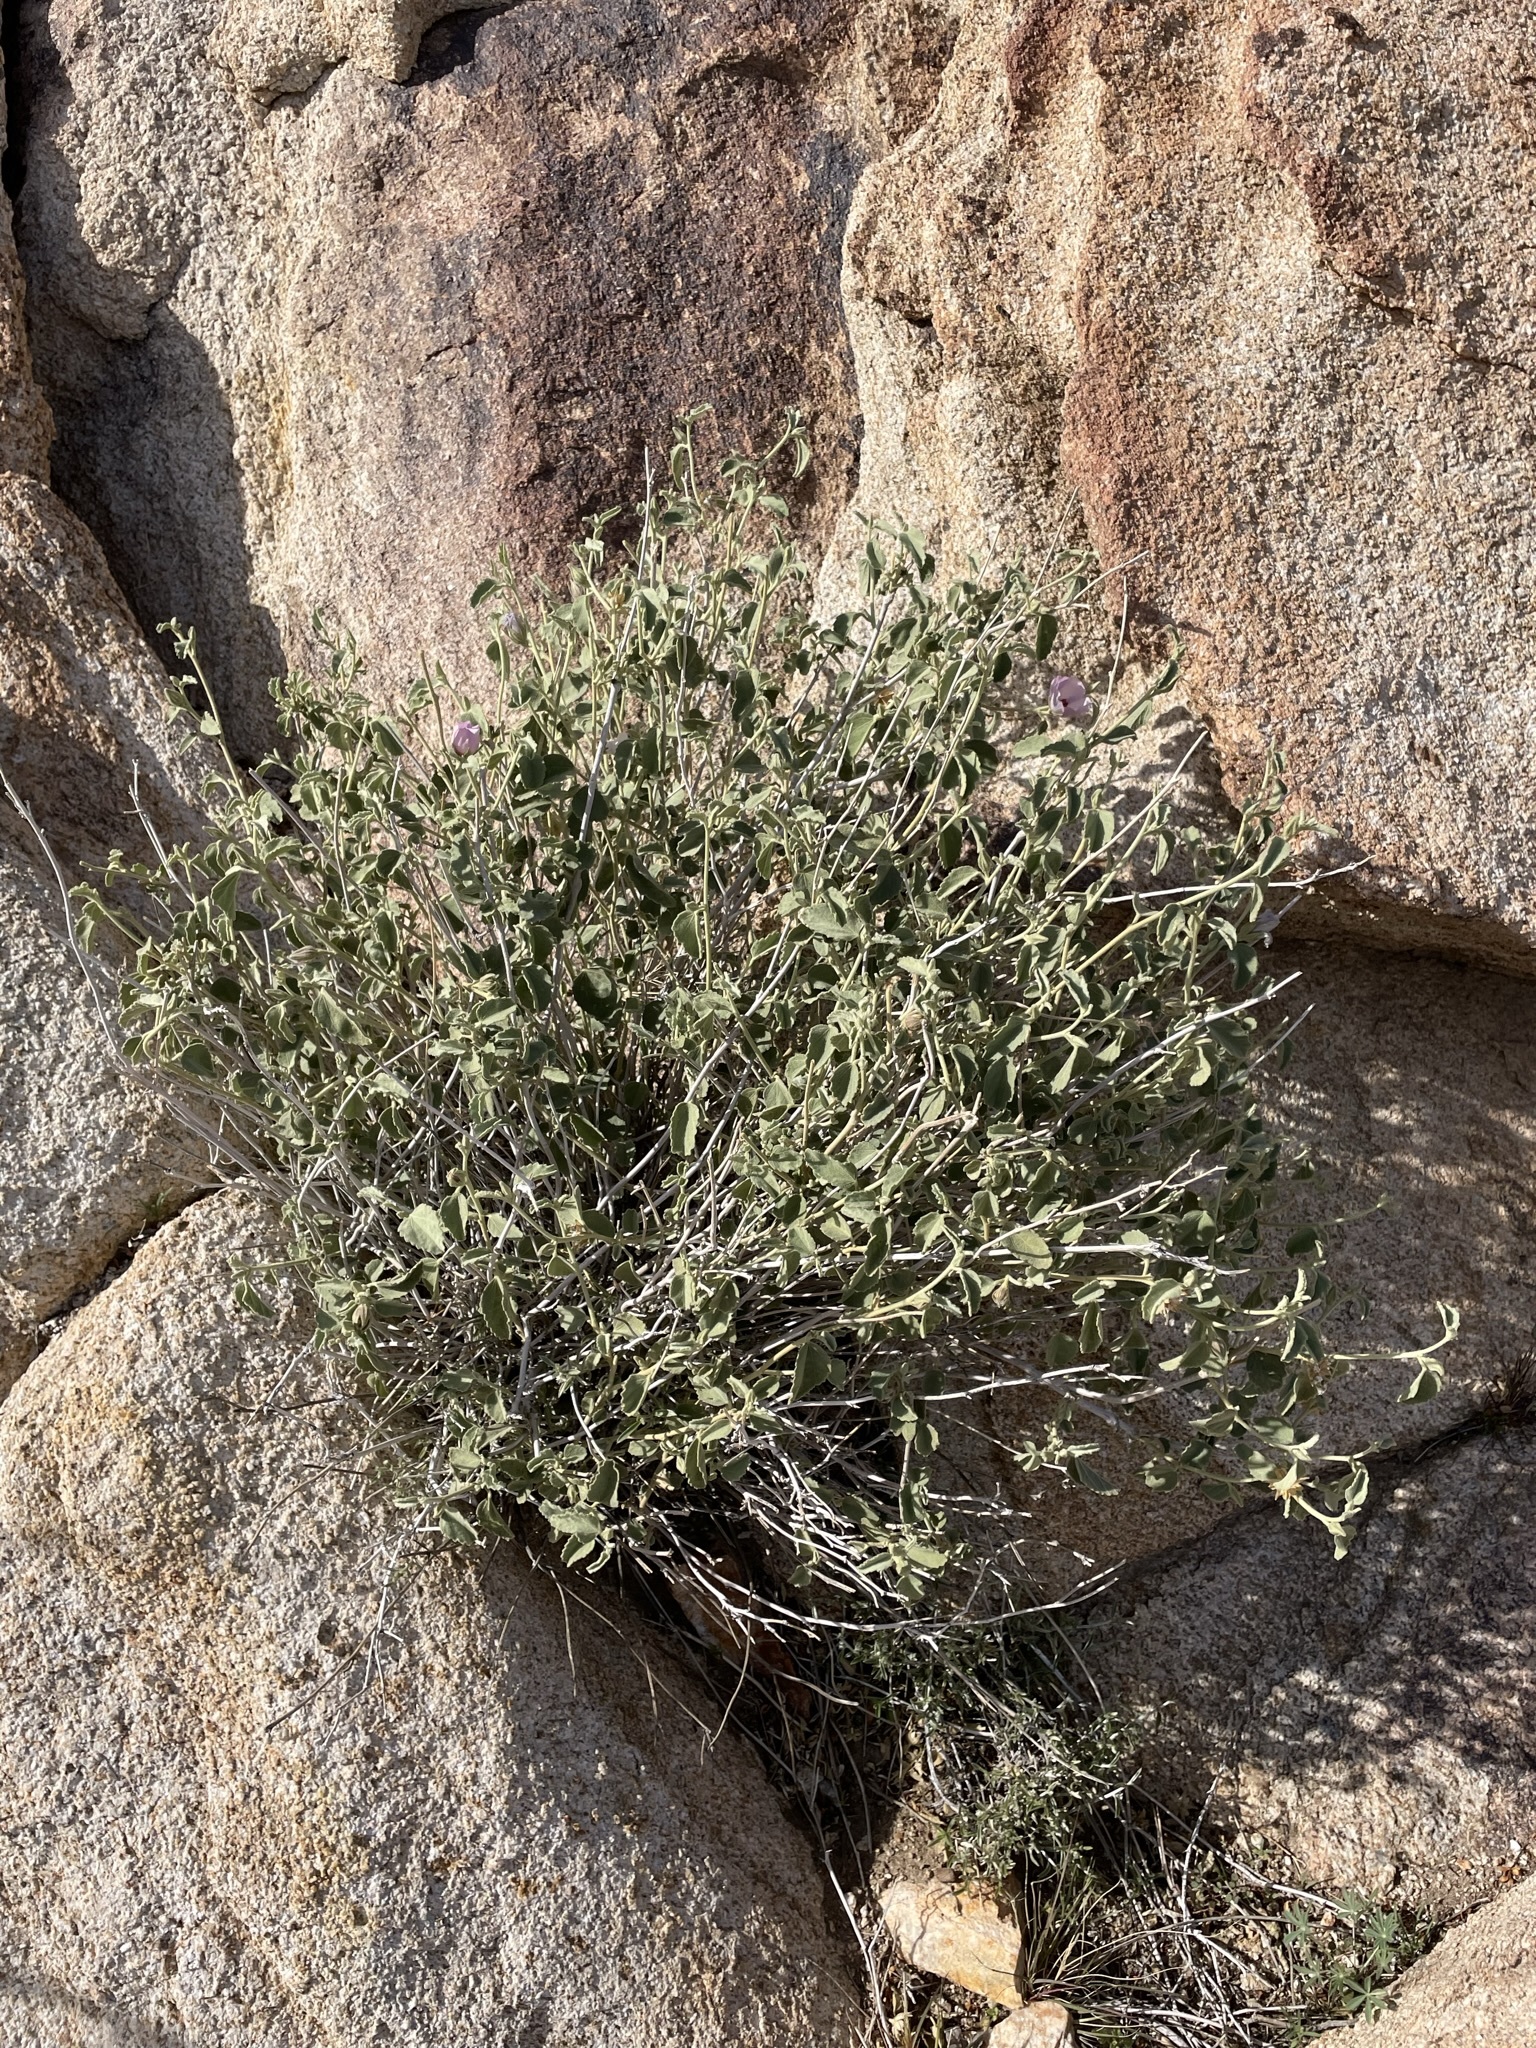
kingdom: Plantae
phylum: Tracheophyta
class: Magnoliopsida
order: Malvales
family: Malvaceae
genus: Hibiscus
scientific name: Hibiscus denudatus
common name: Paleface
